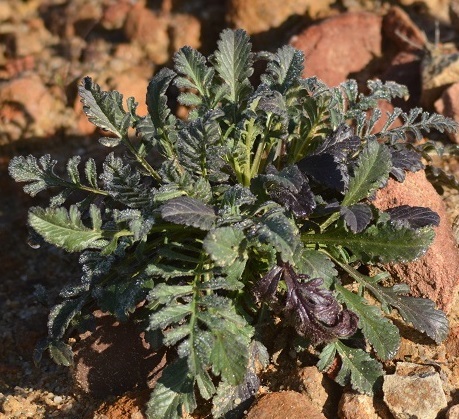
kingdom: Plantae
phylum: Tracheophyta
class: Magnoliopsida
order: Dipsacales
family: Caprifoliaceae
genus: Sixalix
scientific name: Sixalix maritima
